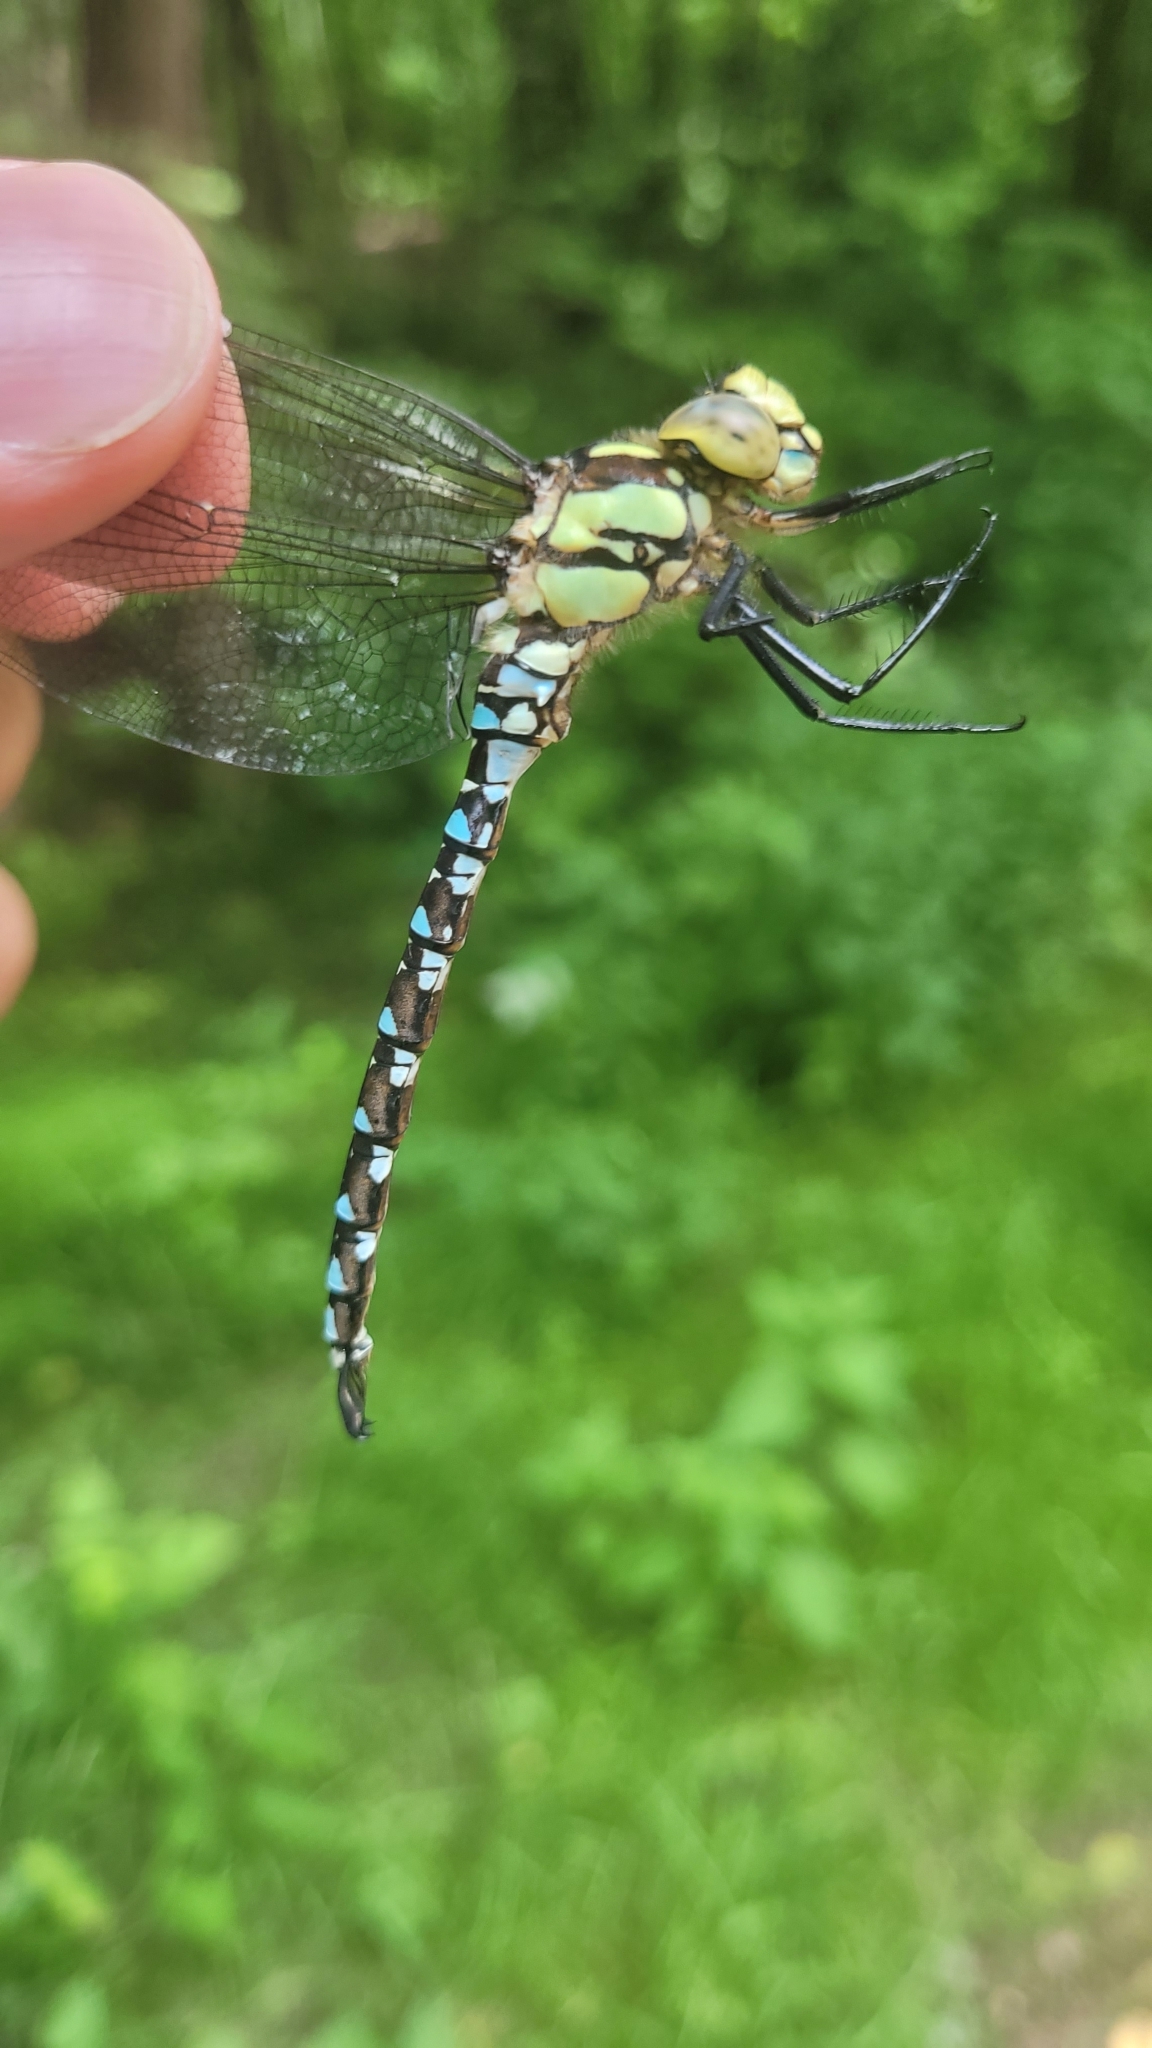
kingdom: Animalia
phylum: Arthropoda
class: Insecta
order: Odonata
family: Aeshnidae
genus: Aeshna
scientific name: Aeshna cyanea
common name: Southern hawker
